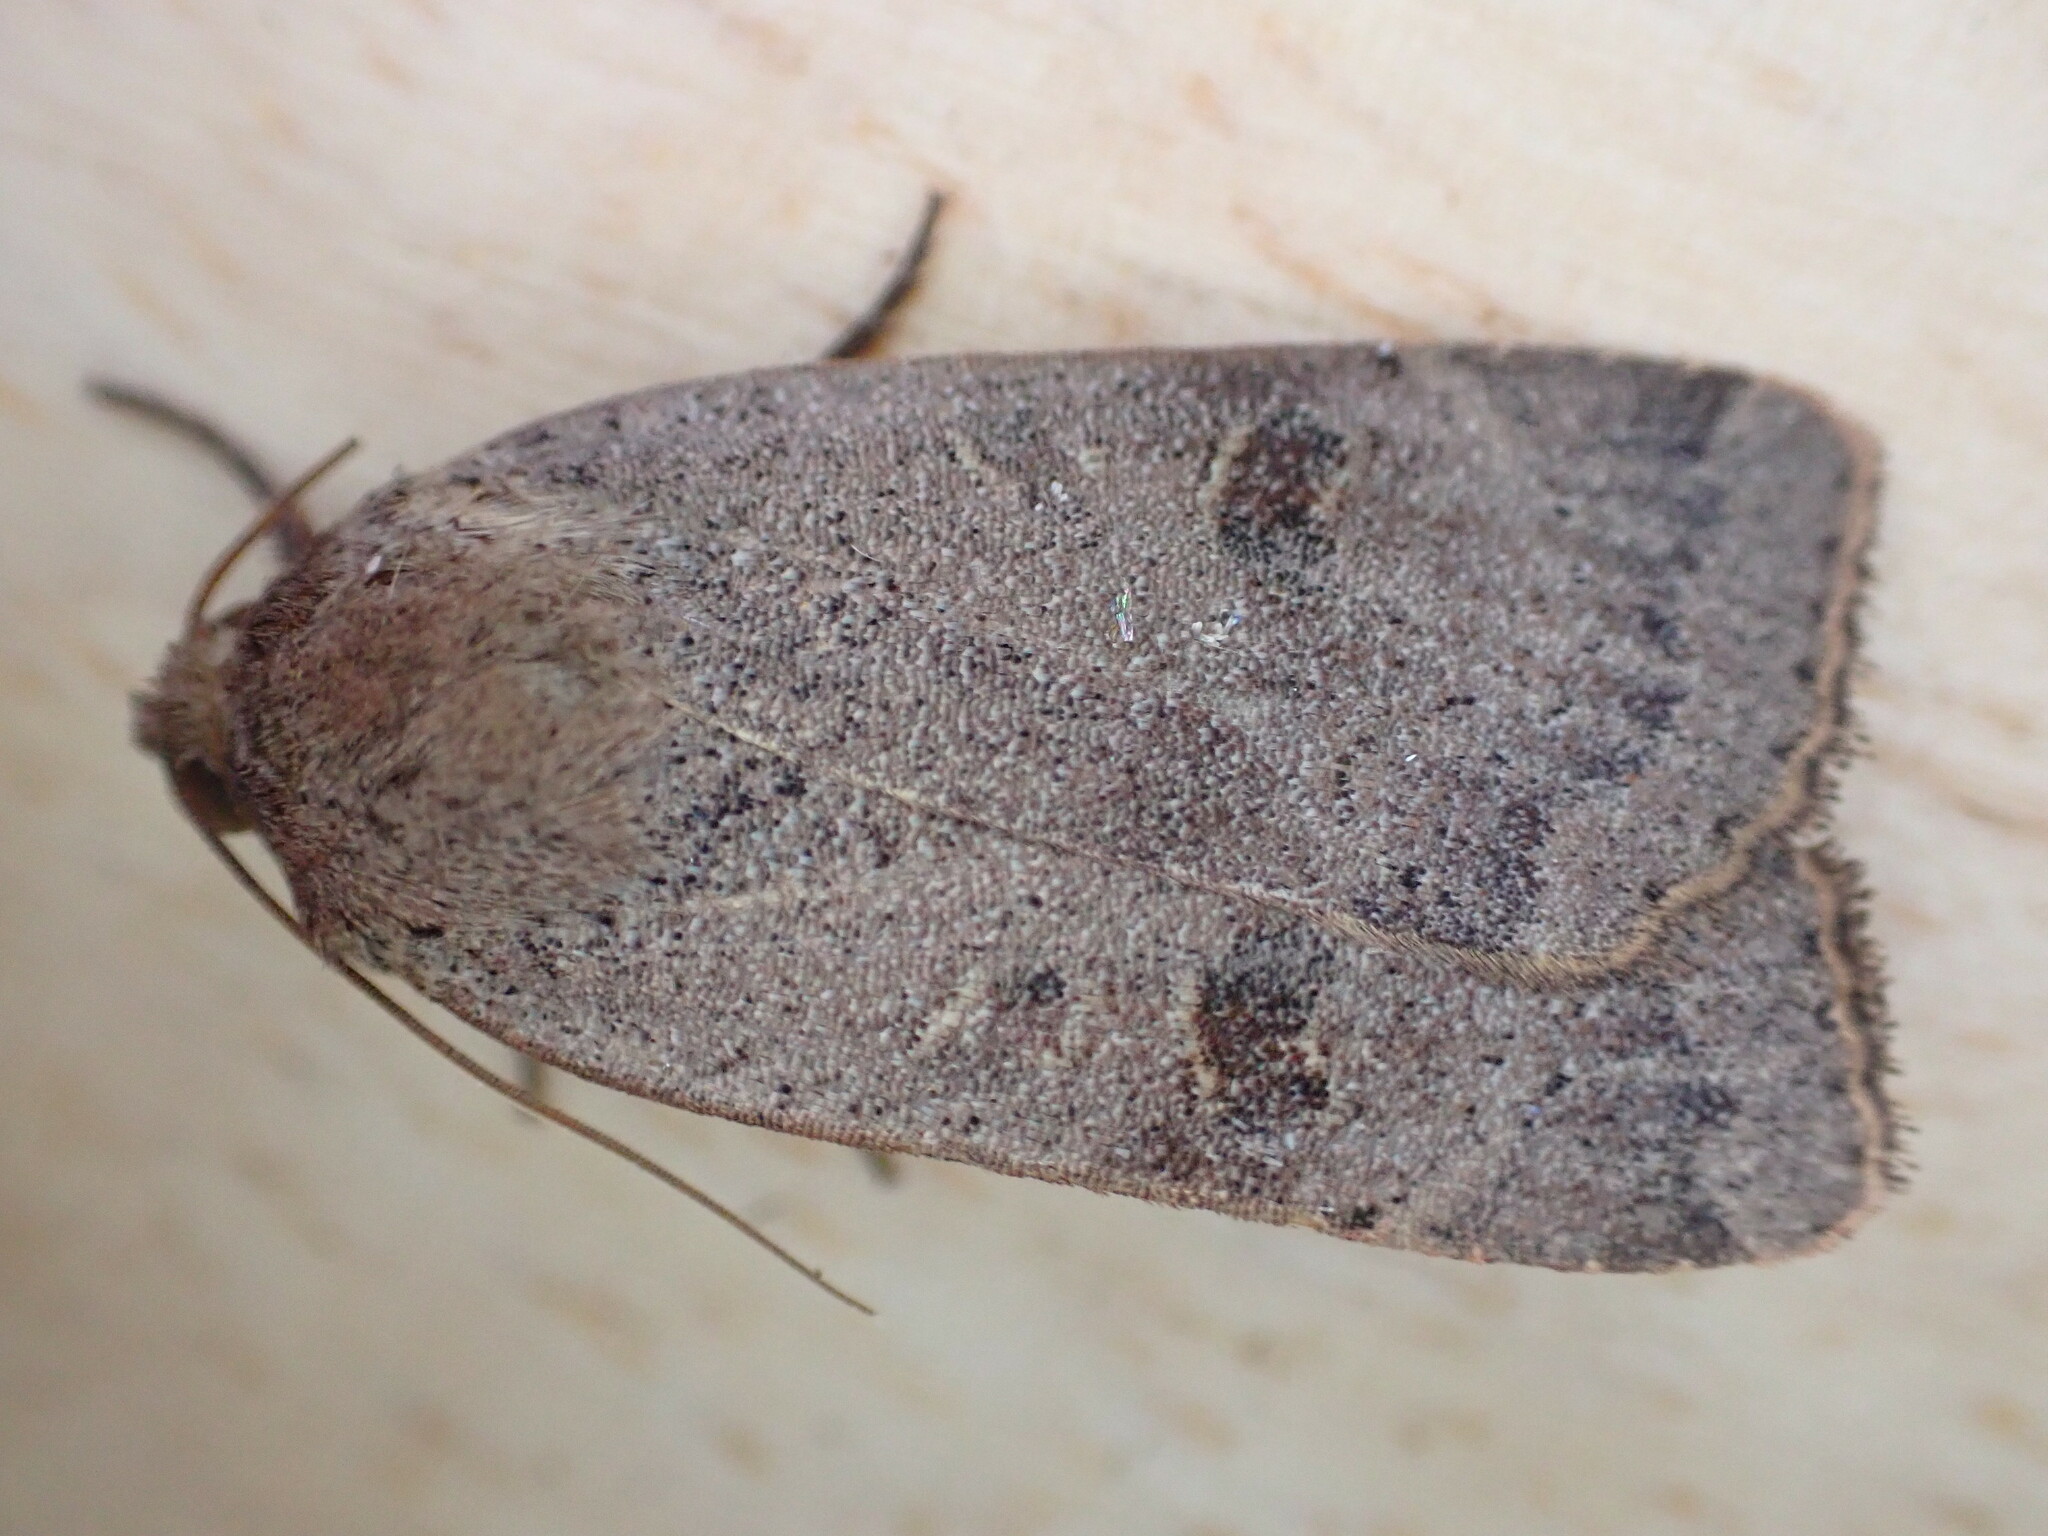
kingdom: Animalia
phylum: Arthropoda
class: Insecta
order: Lepidoptera
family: Noctuidae
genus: Noctua
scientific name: Noctua comes
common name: Lesser yellow underwing
